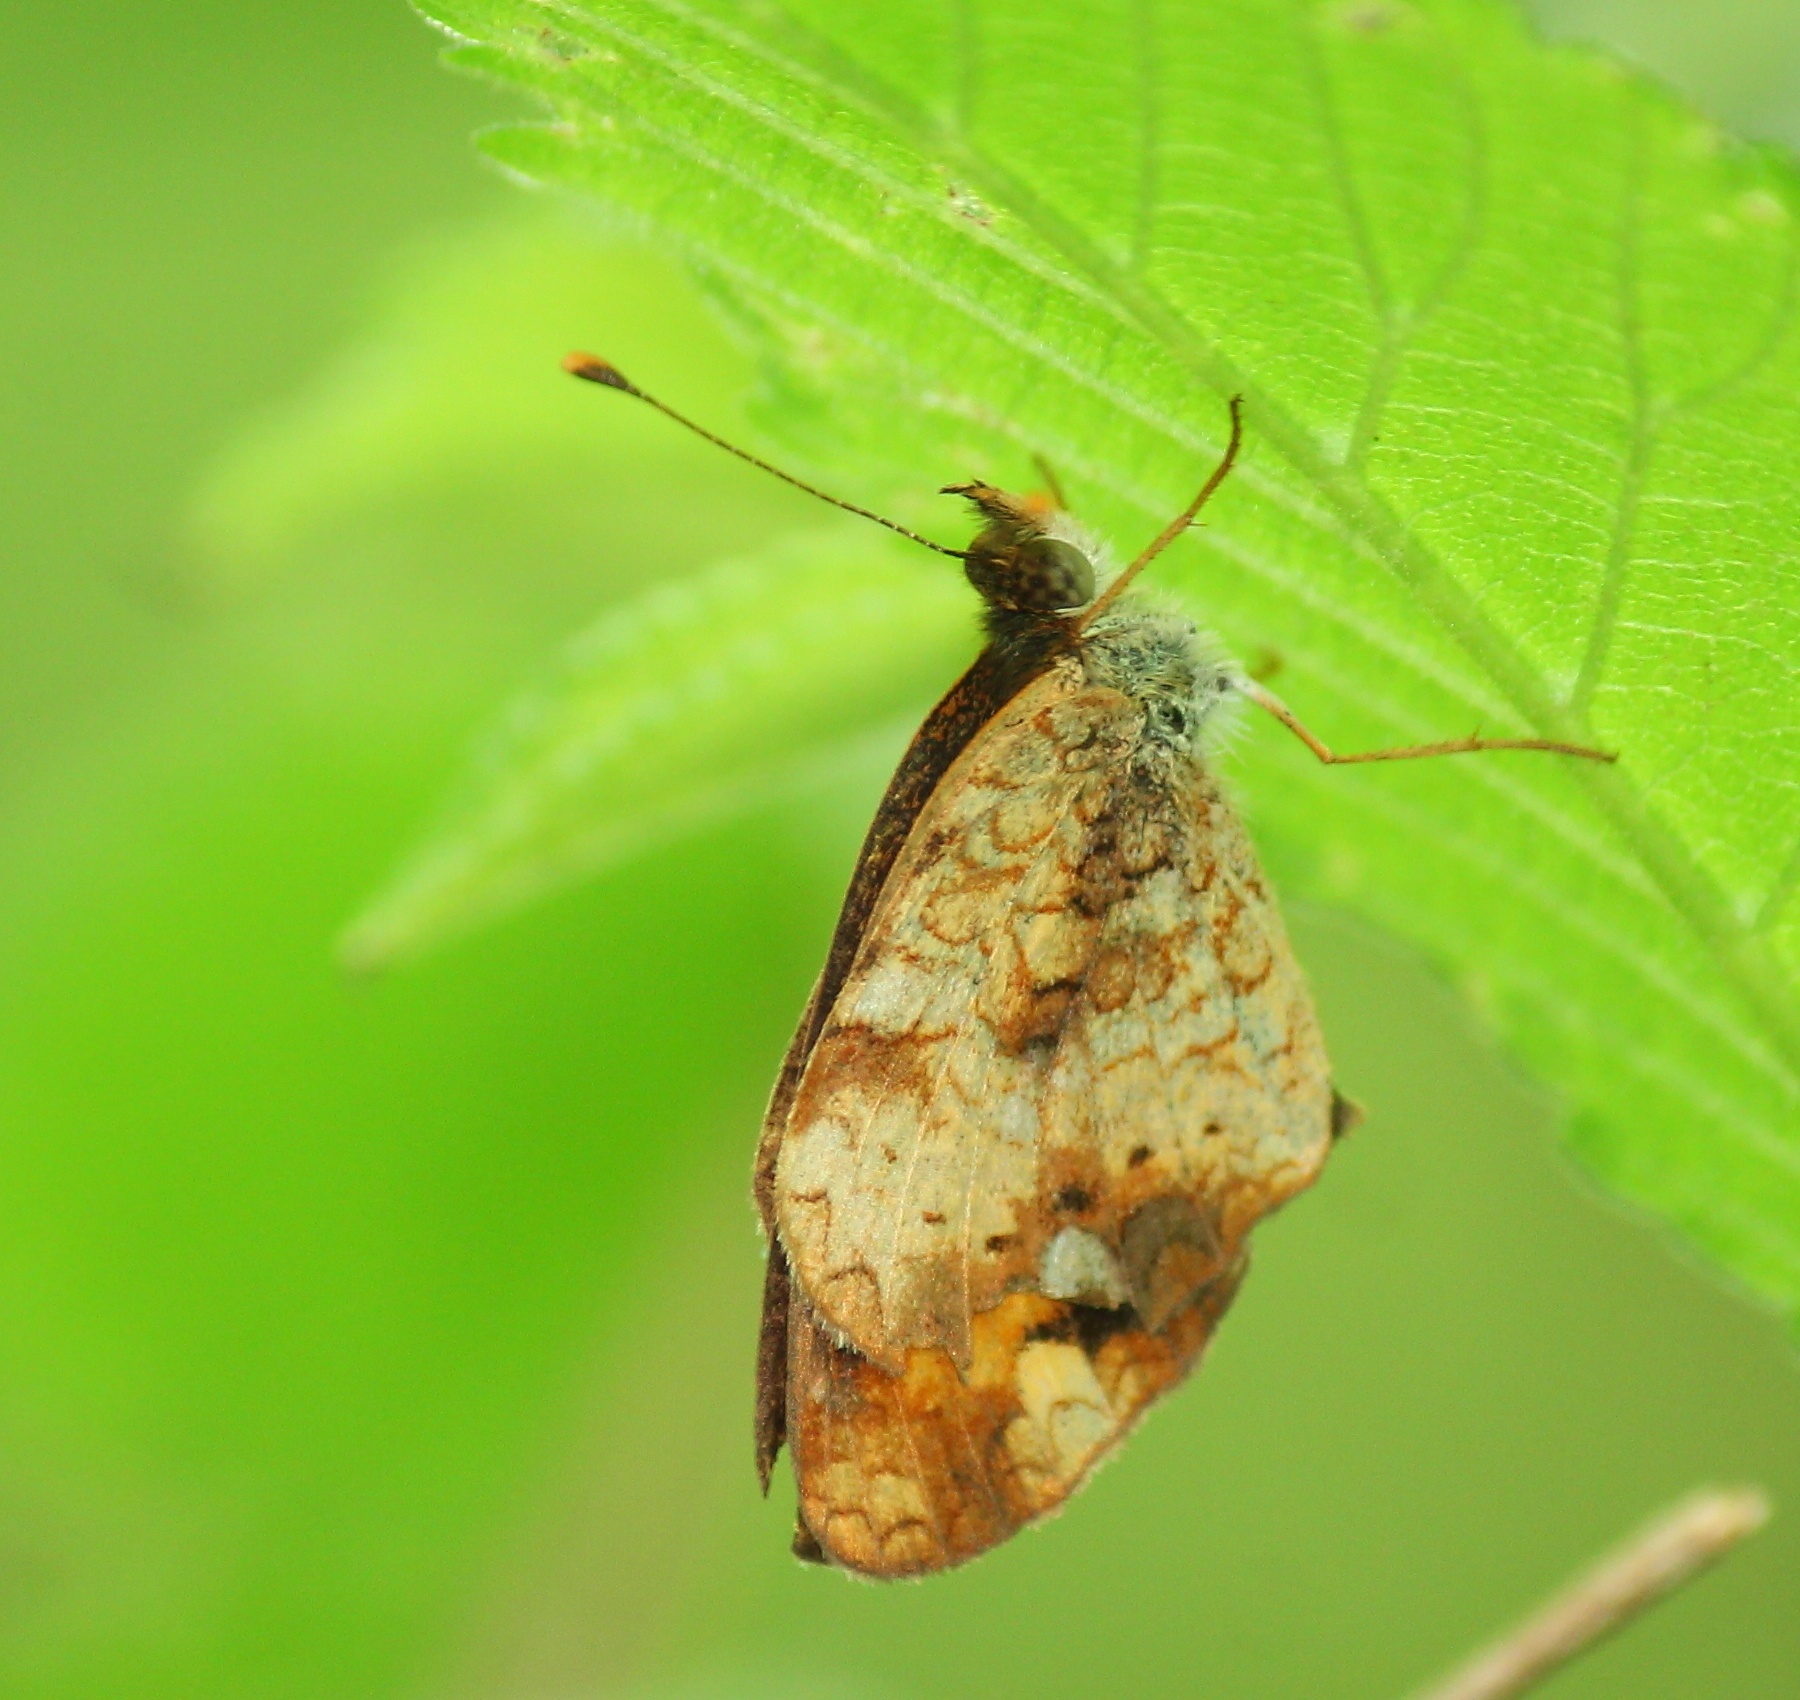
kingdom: Animalia
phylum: Arthropoda
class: Insecta
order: Lepidoptera
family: Nymphalidae
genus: Phyciodes
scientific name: Phyciodes tharos
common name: Pearl crescent
